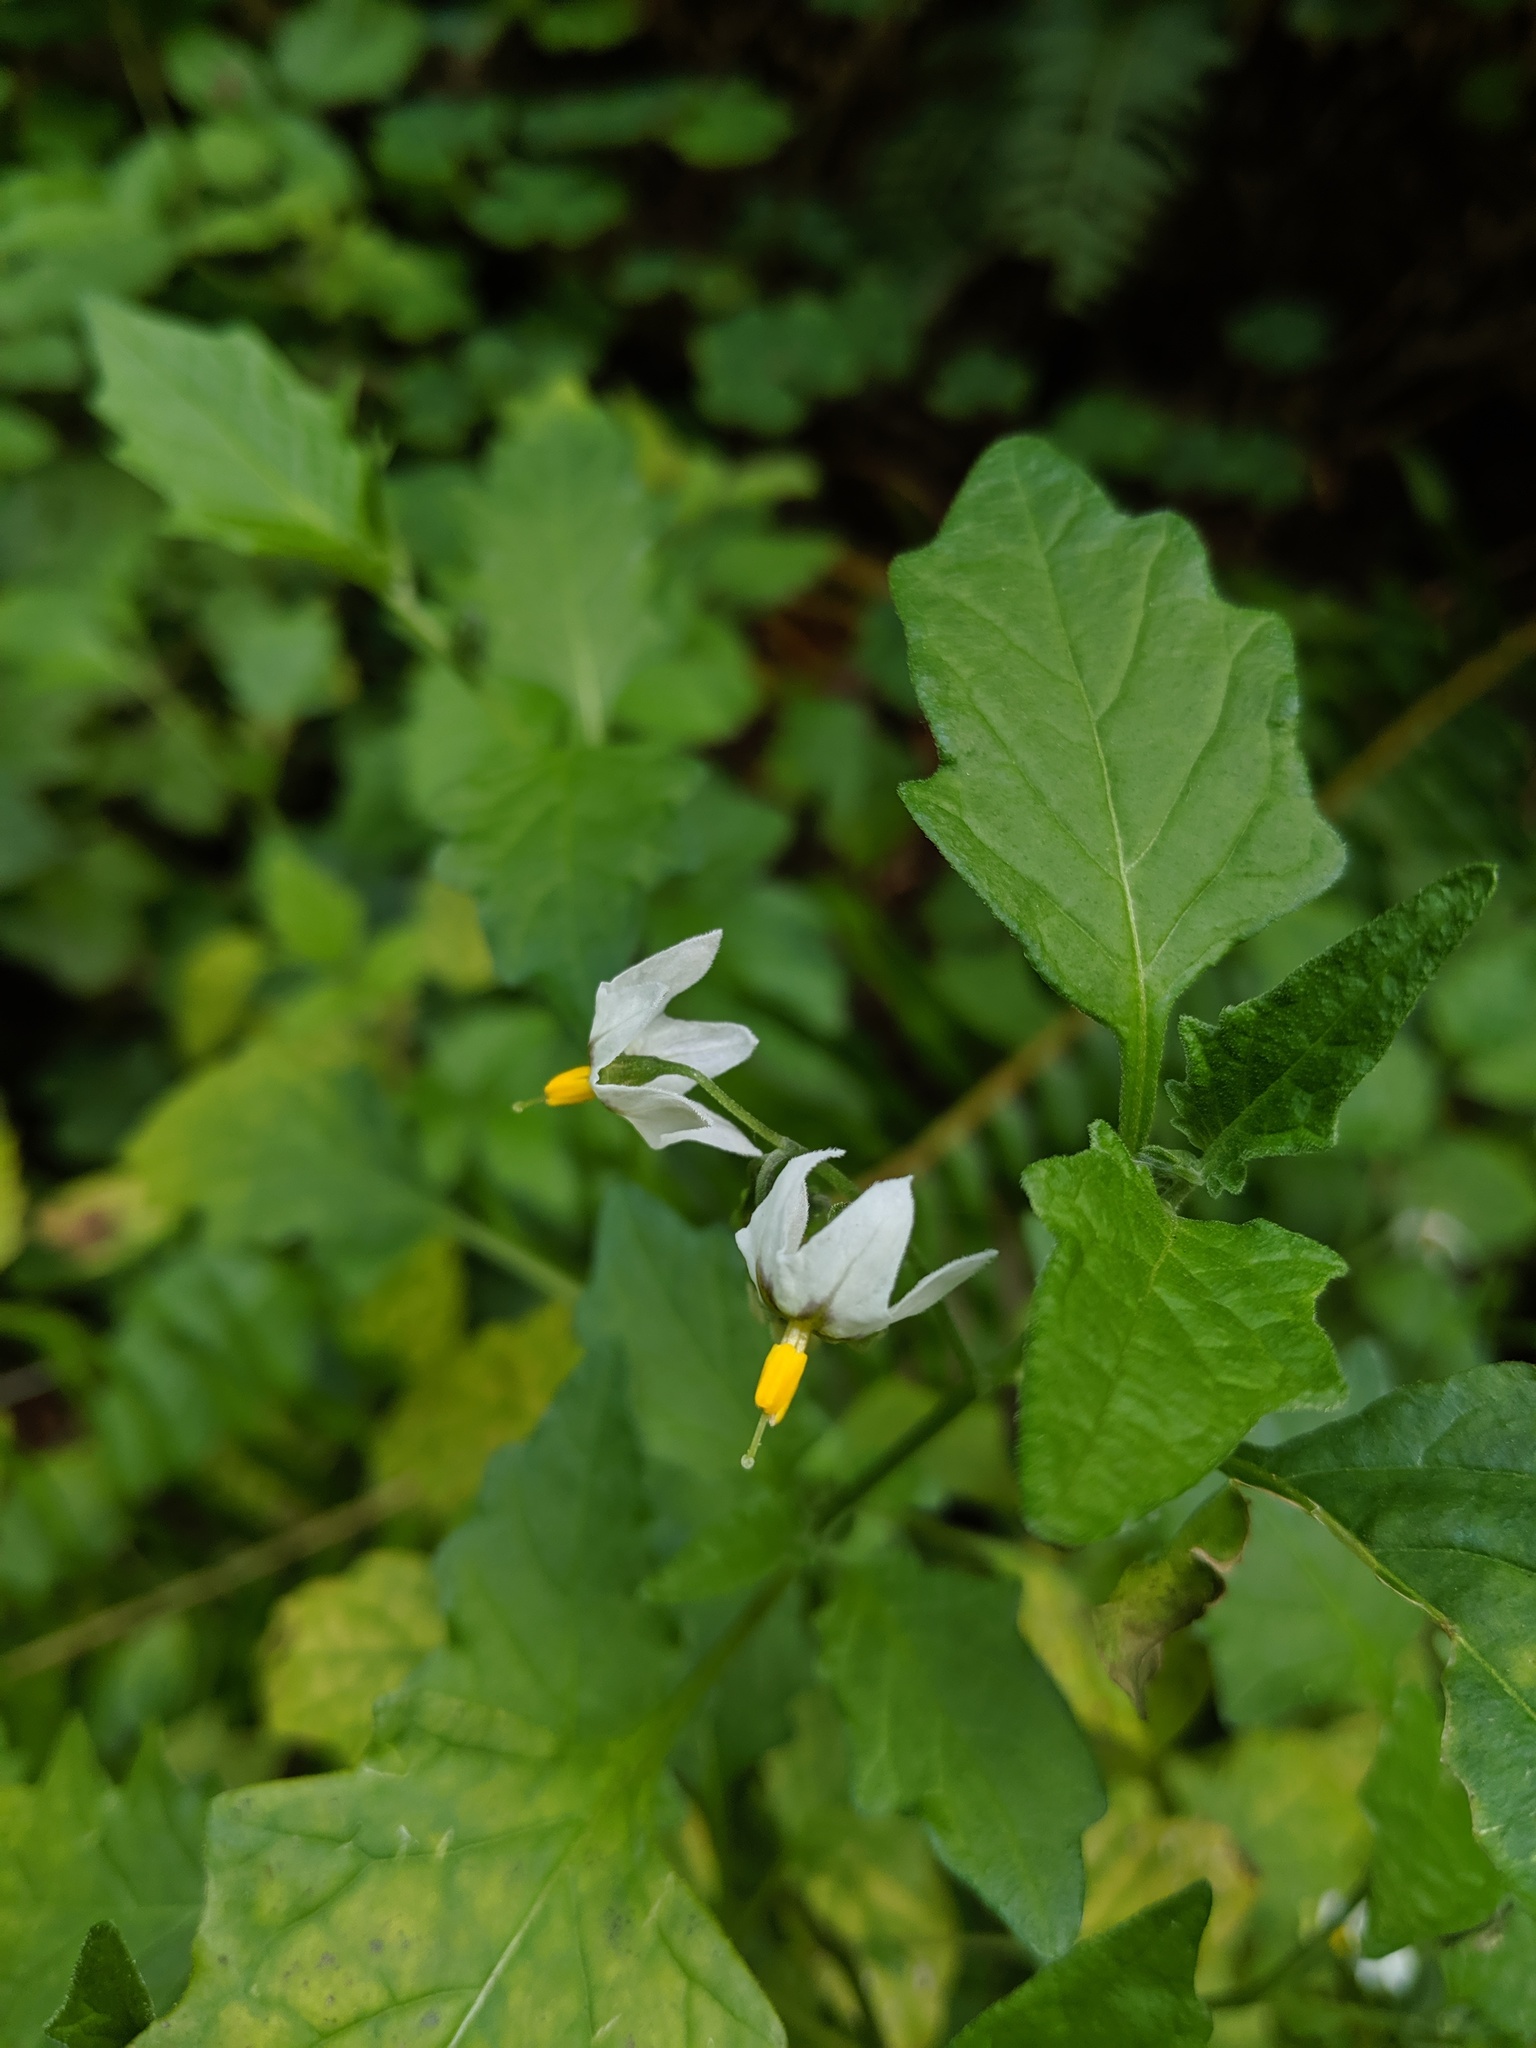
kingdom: Plantae
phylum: Tracheophyta
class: Magnoliopsida
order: Solanales
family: Solanaceae
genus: Solanum
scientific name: Solanum furcatum
